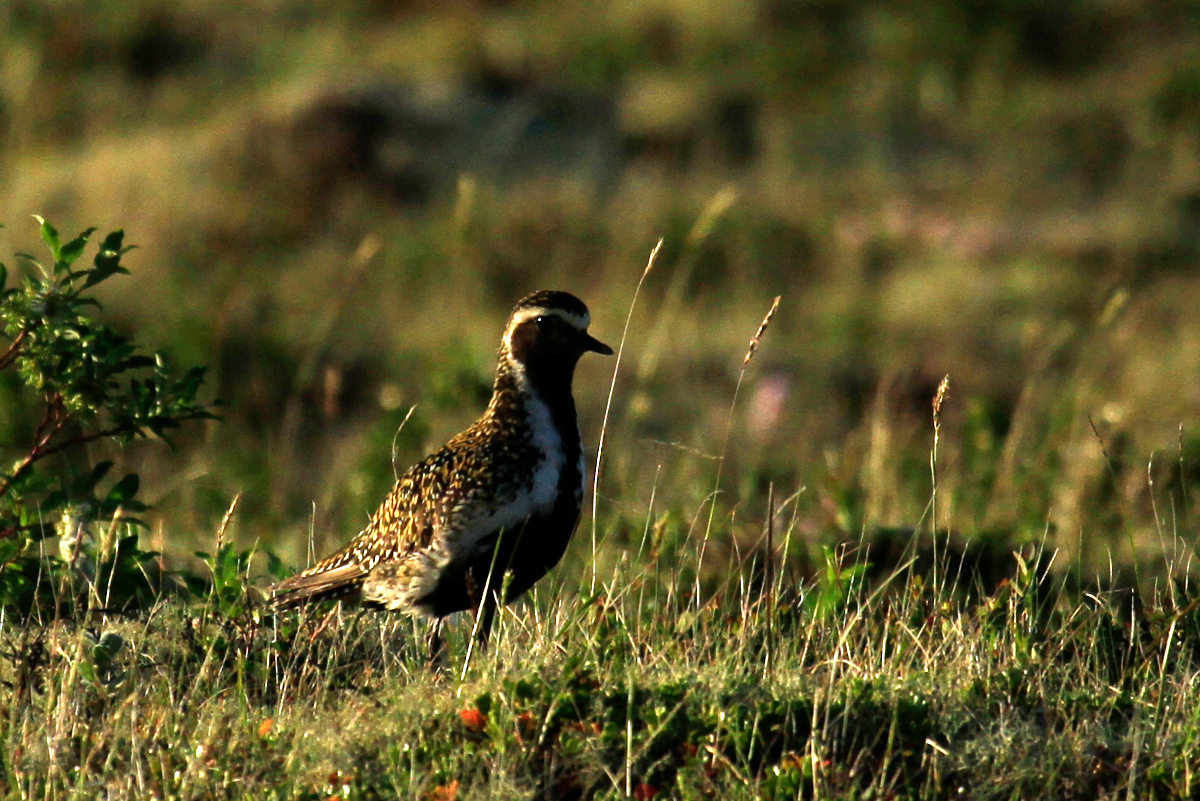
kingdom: Animalia
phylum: Chordata
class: Aves
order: Charadriiformes
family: Charadriidae
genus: Pluvialis
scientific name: Pluvialis apricaria
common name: European golden plover
